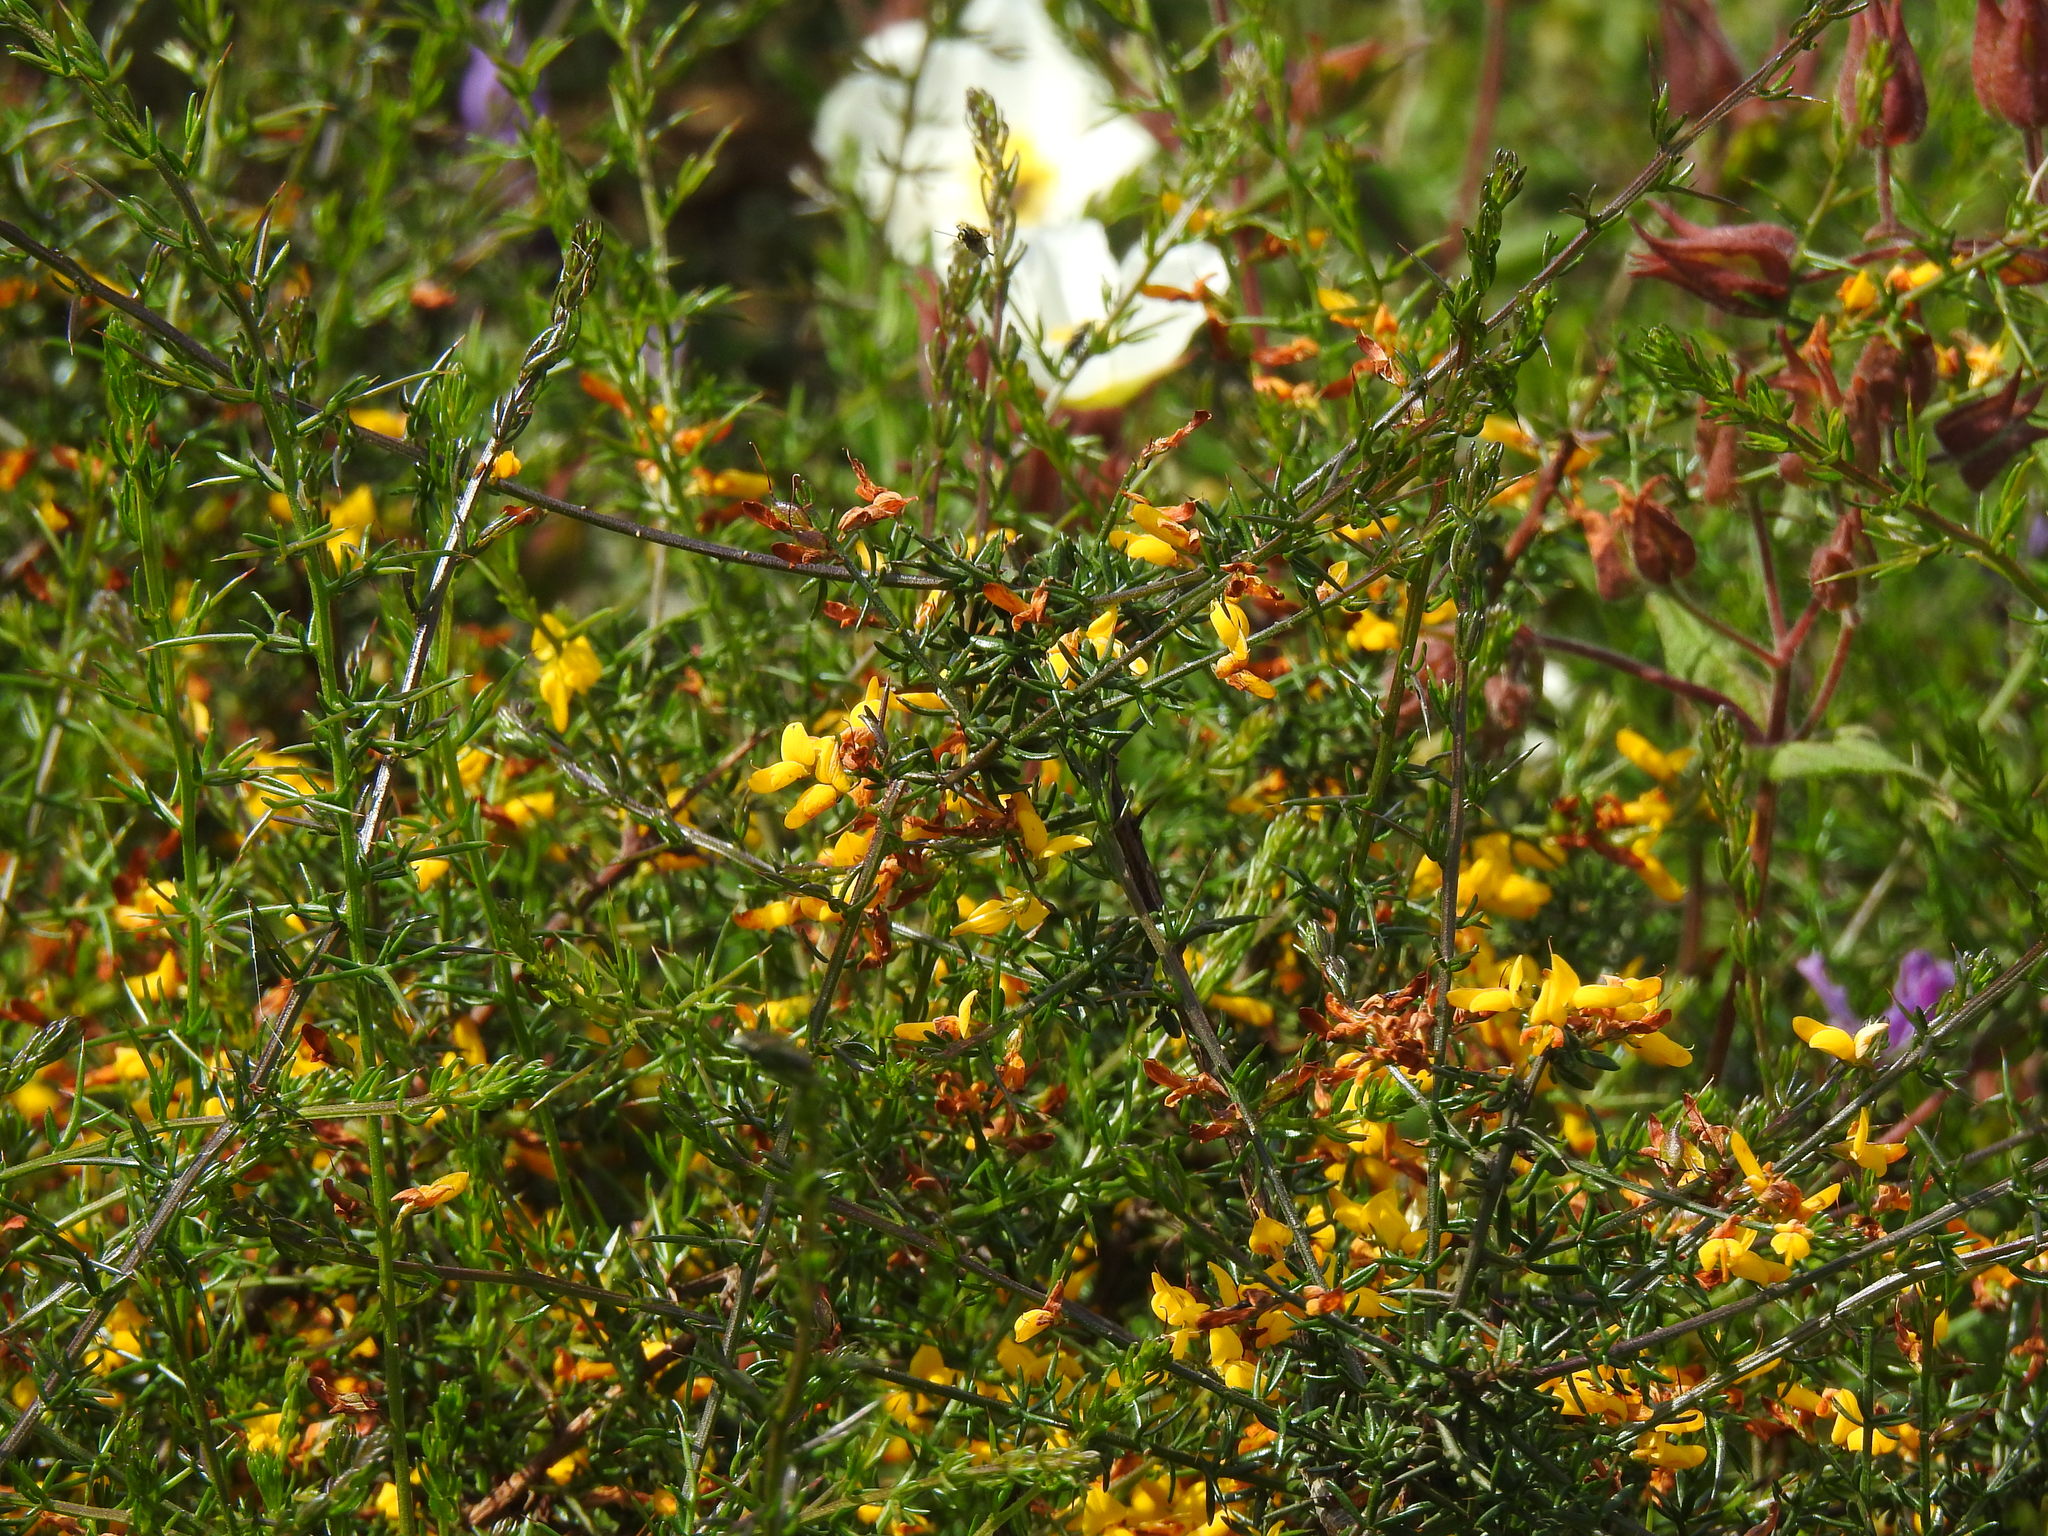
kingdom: Plantae
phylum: Tracheophyta
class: Magnoliopsida
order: Fabales
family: Fabaceae
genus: Genista
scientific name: Genista triacanthos
